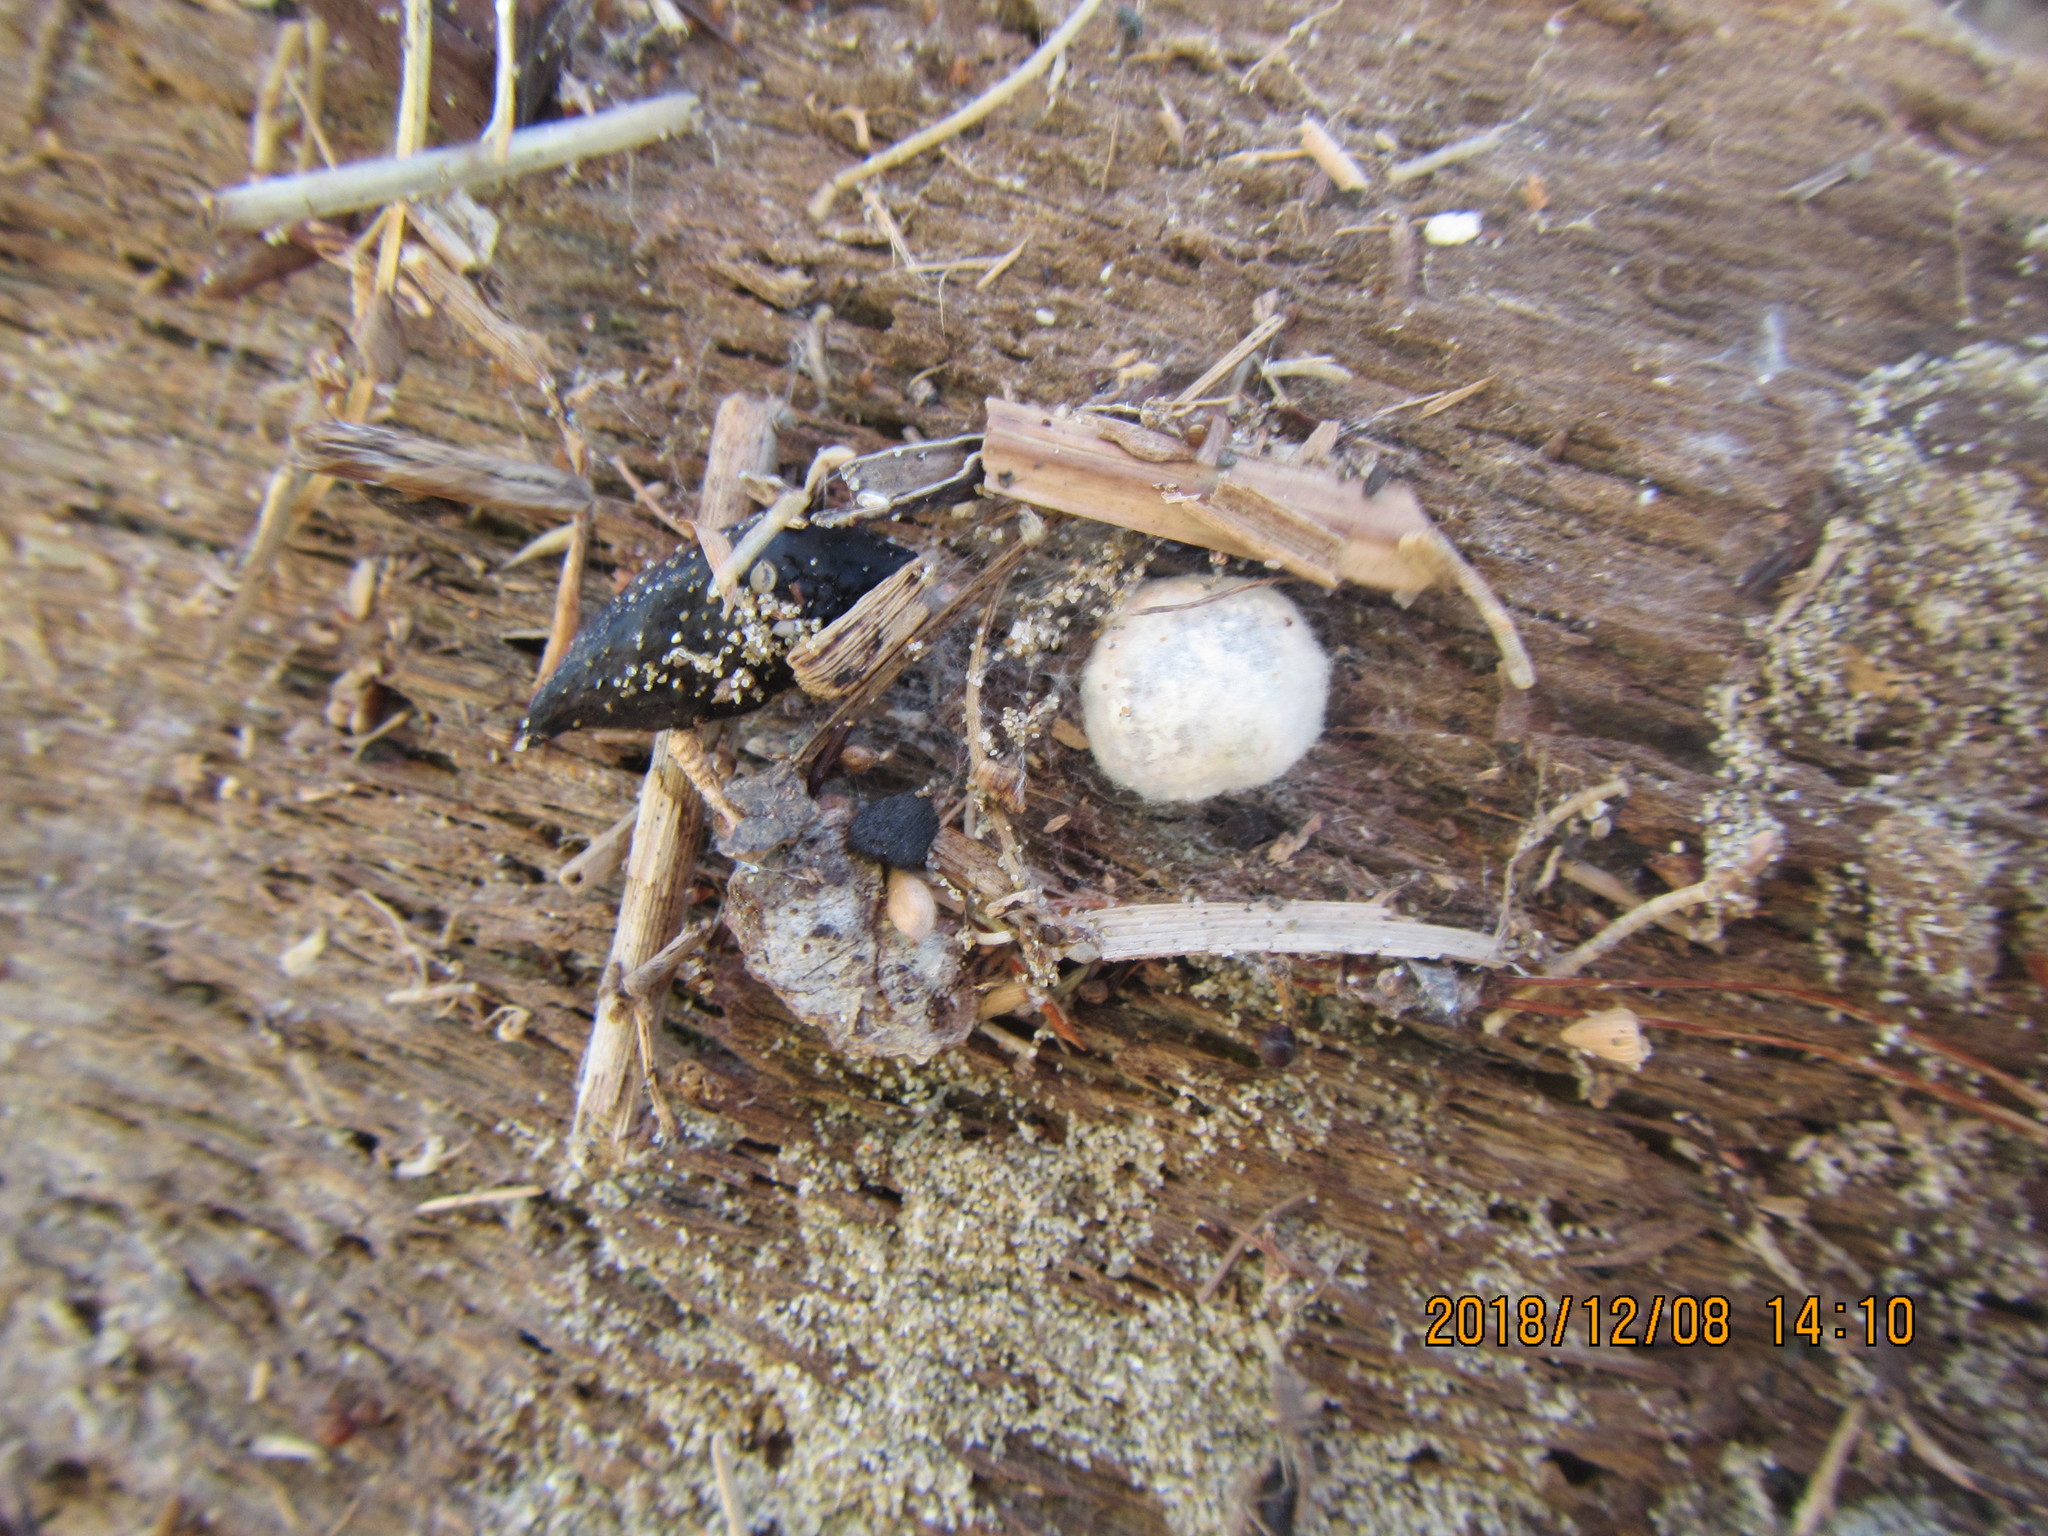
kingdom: Animalia
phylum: Arthropoda
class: Arachnida
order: Araneae
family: Theridiidae
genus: Steatoda
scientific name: Steatoda capensis
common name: Cobweb weaver
